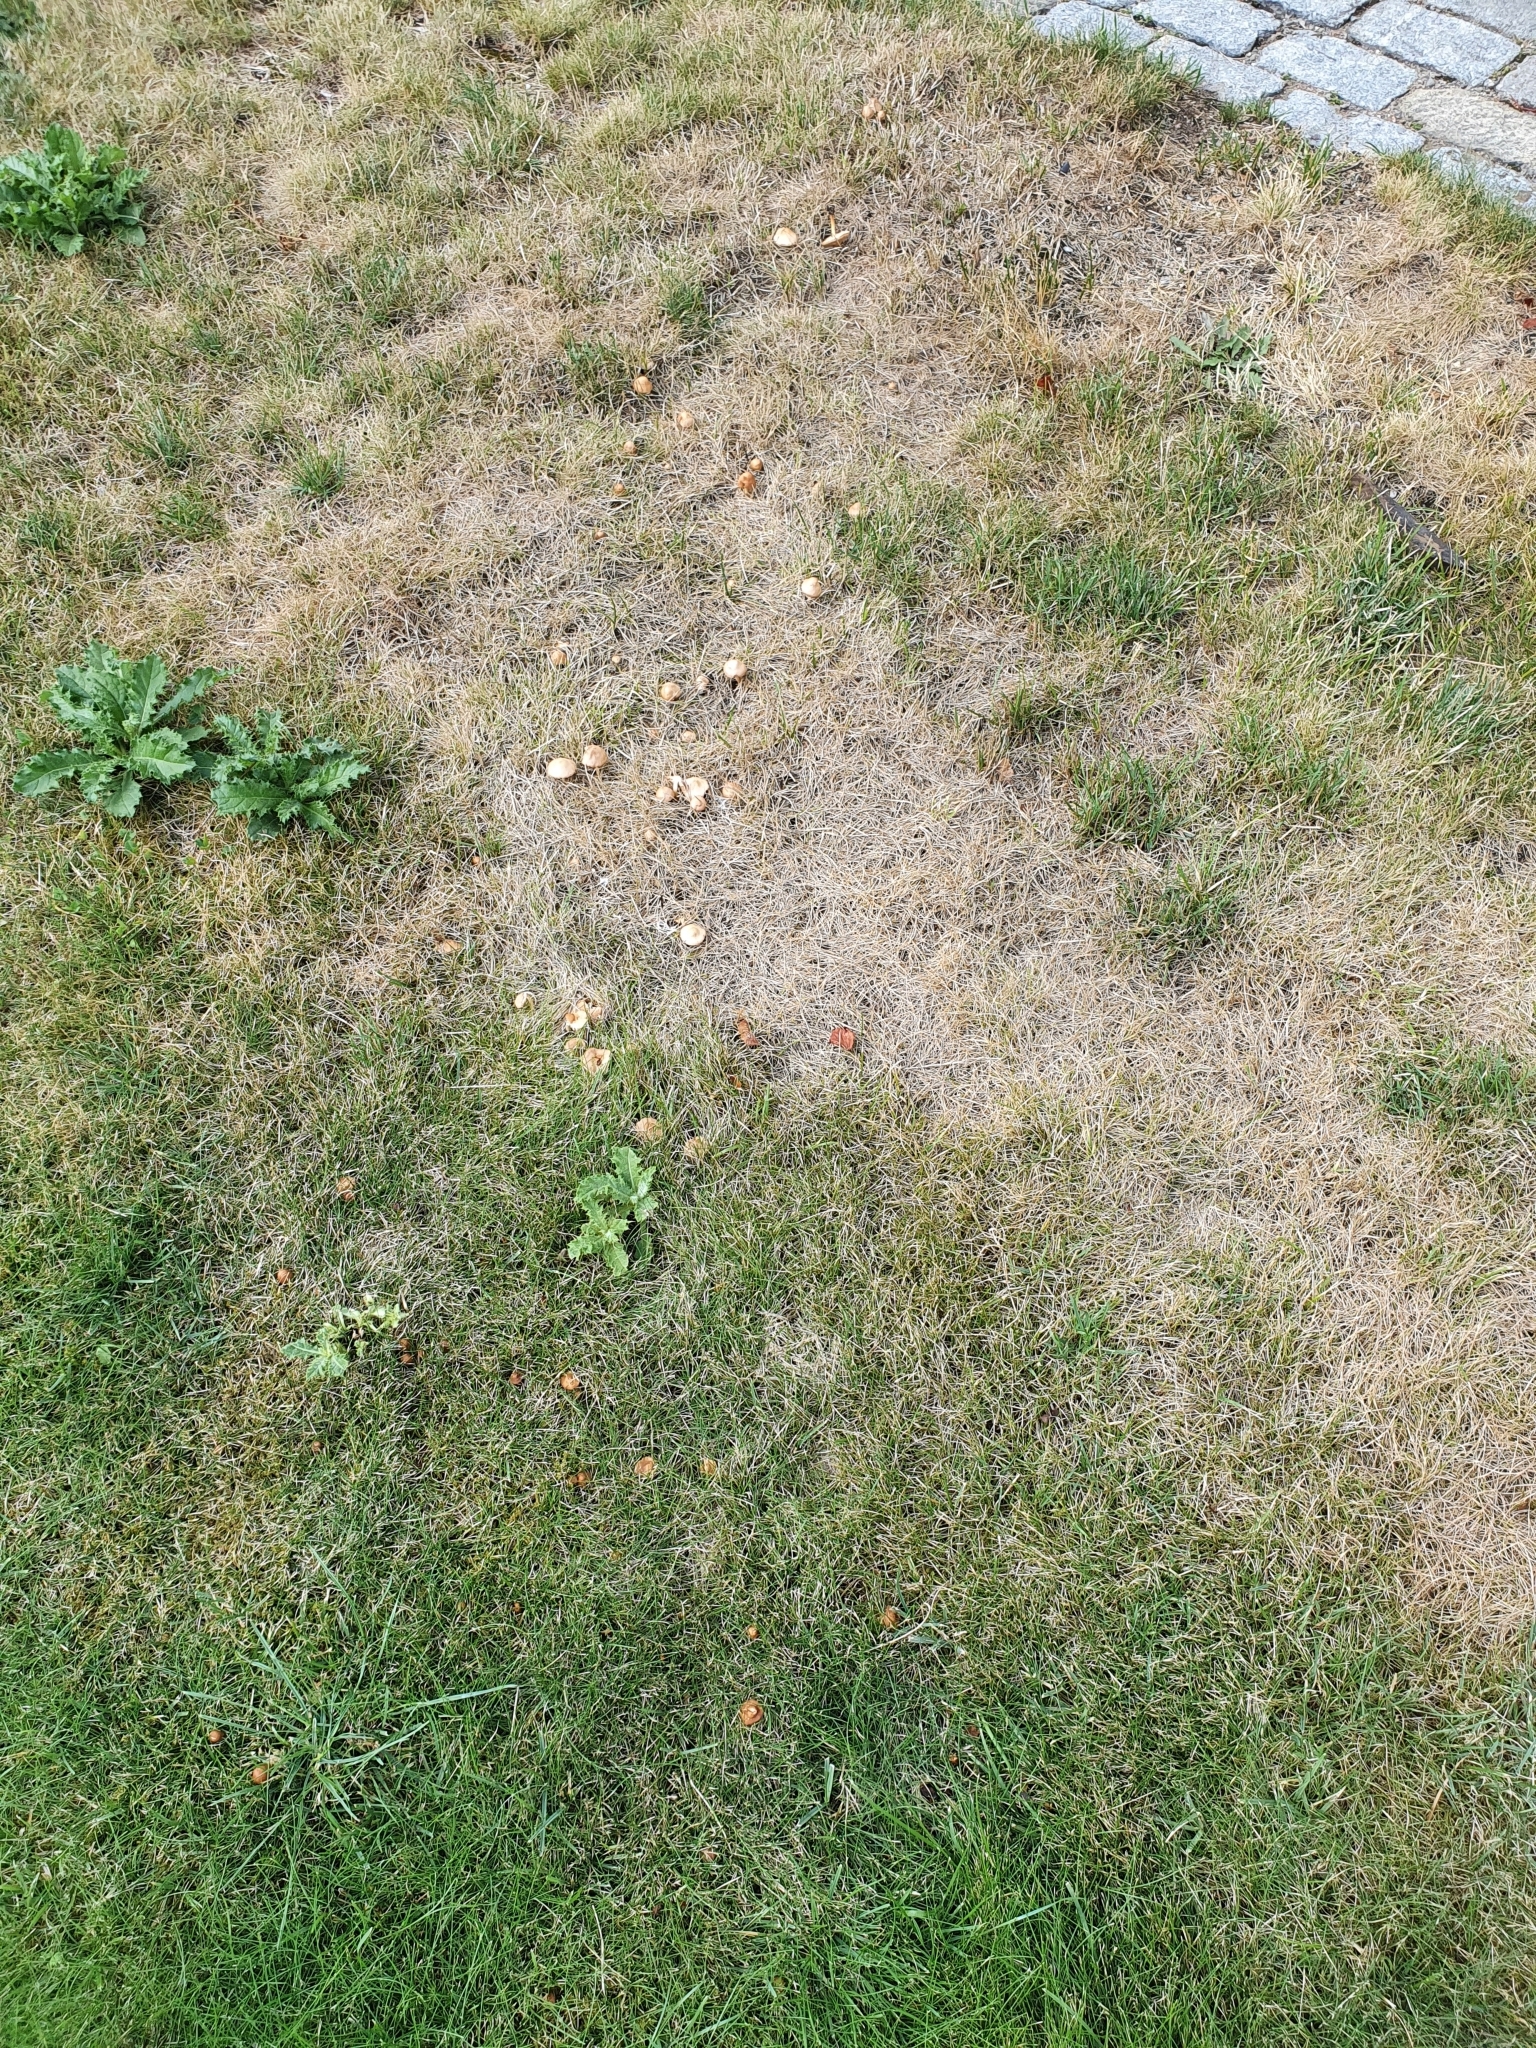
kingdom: Fungi
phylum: Basidiomycota
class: Agaricomycetes
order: Agaricales
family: Marasmiaceae
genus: Marasmius
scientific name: Marasmius oreades
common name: Fairy ring champignon
